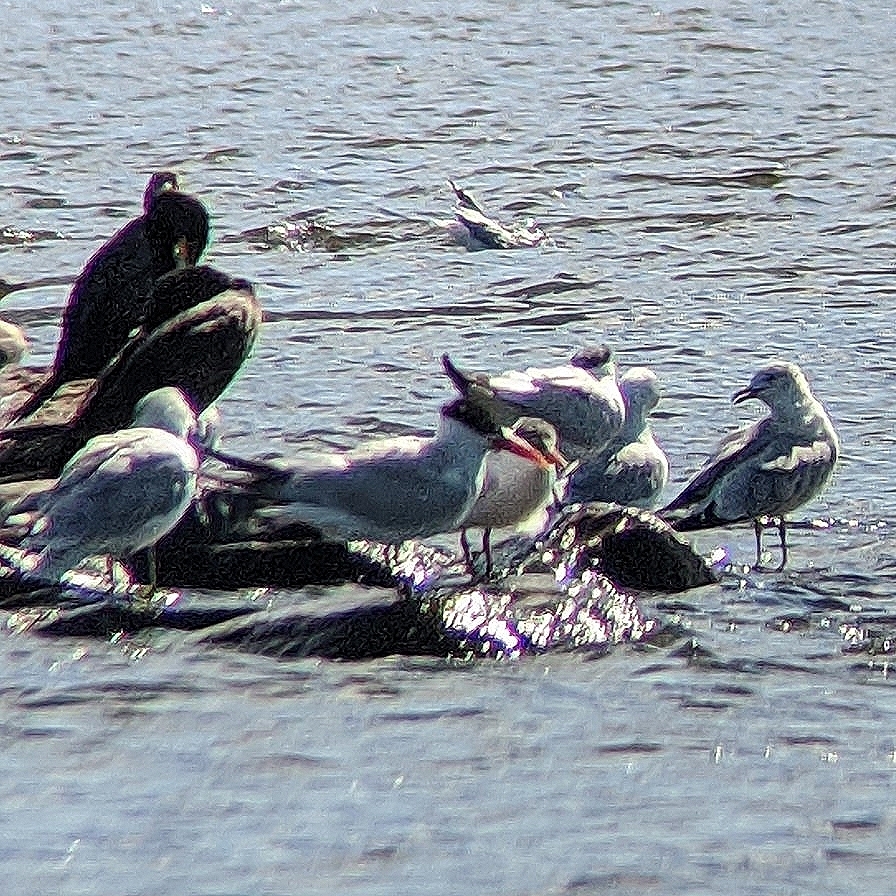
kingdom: Animalia
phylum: Chordata
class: Aves
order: Charadriiformes
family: Laridae
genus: Hydroprogne
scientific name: Hydroprogne caspia
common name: Caspian tern
